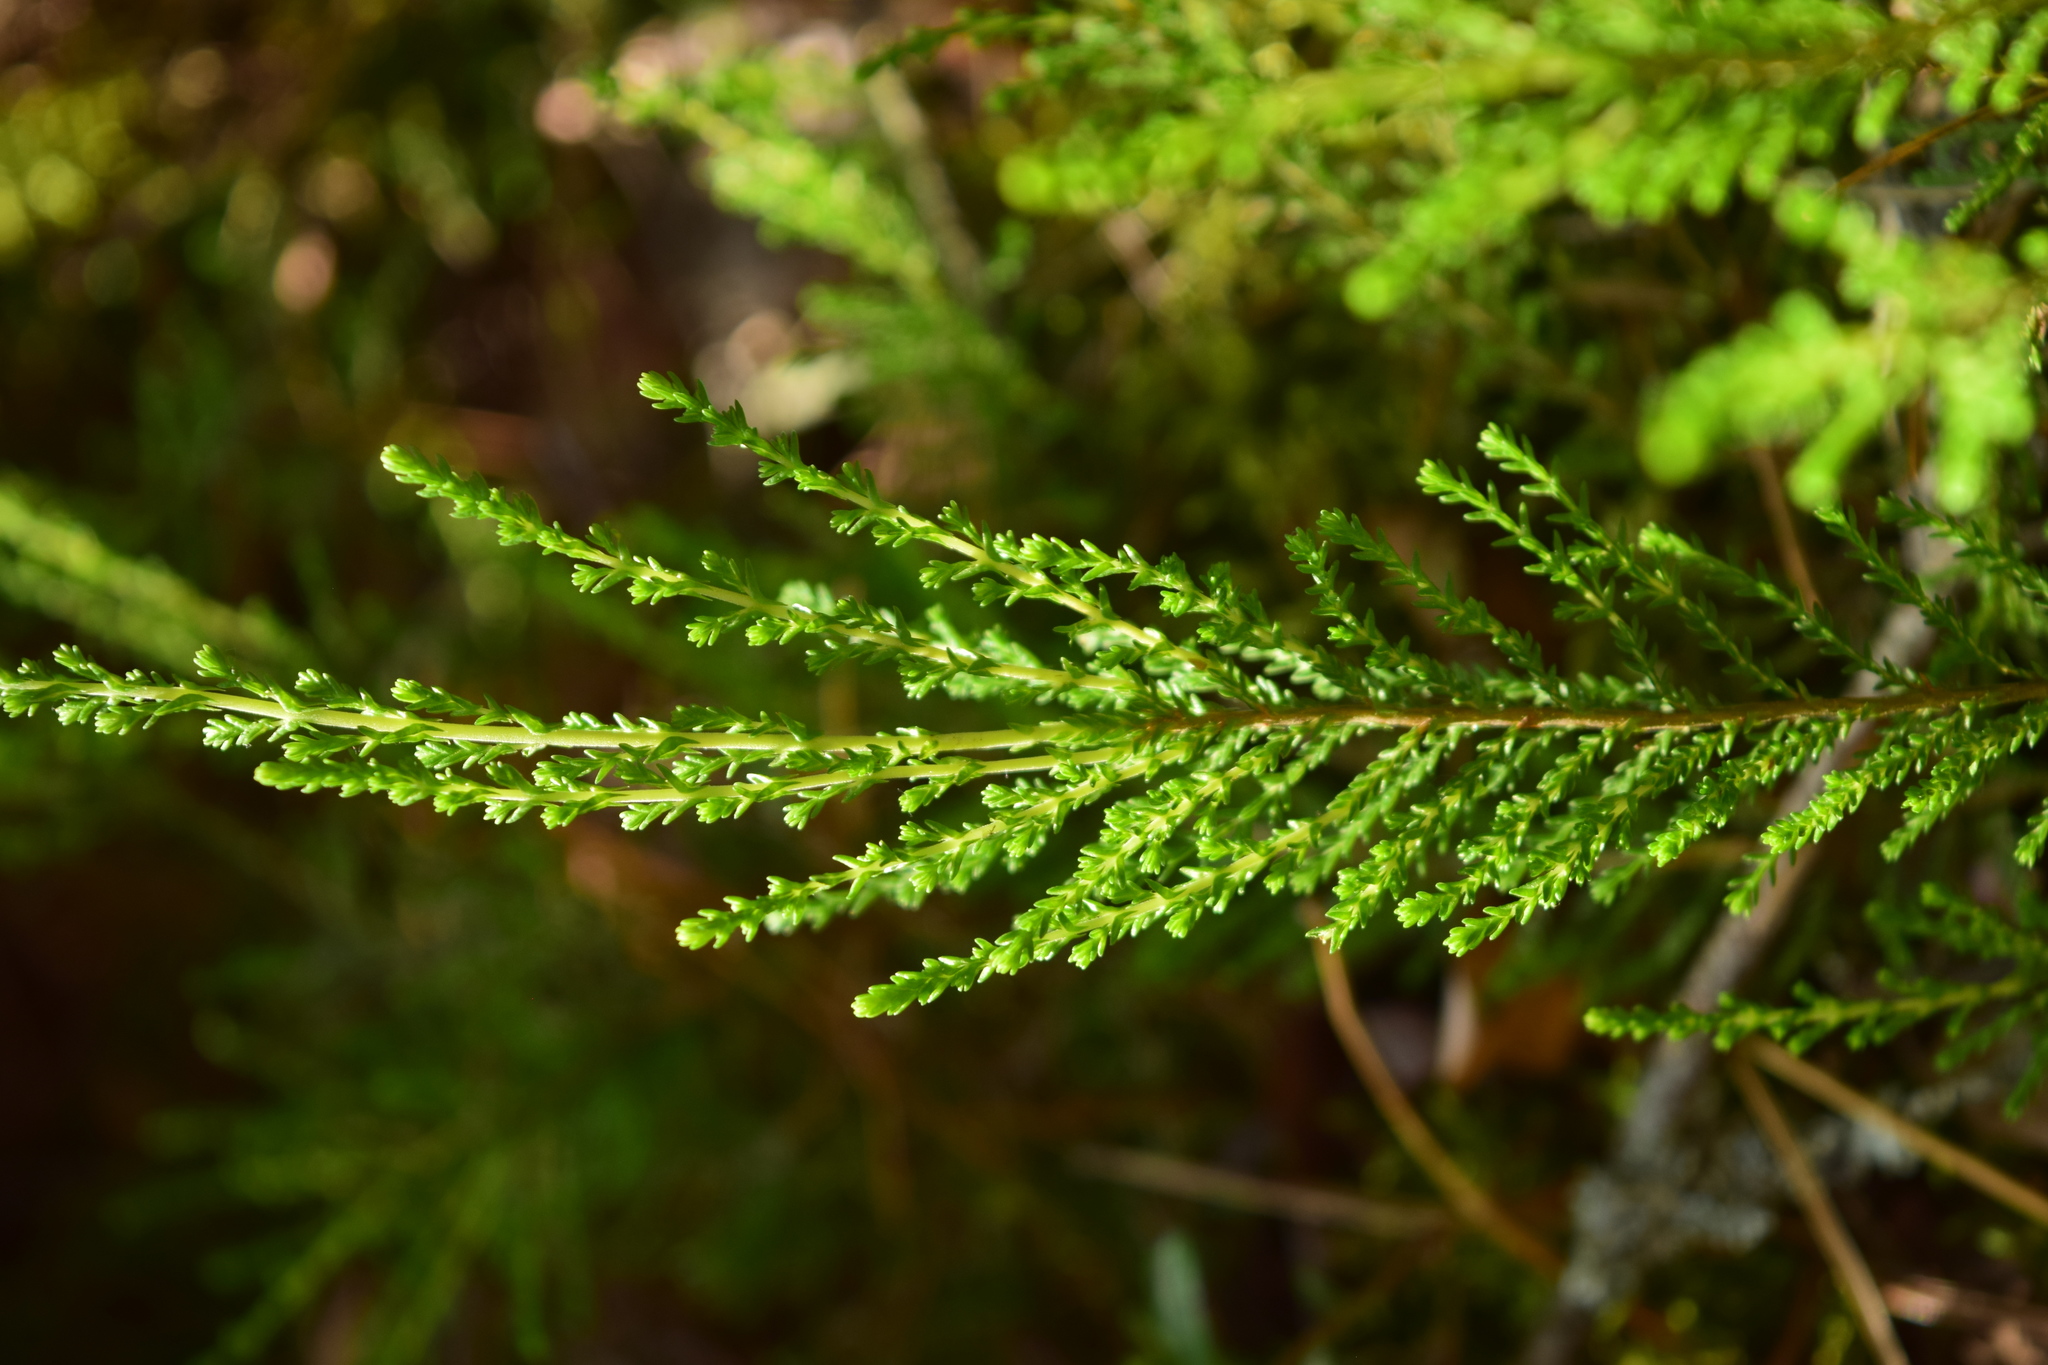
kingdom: Plantae
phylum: Tracheophyta
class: Magnoliopsida
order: Ericales
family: Ericaceae
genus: Calluna
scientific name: Calluna vulgaris
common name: Heather
